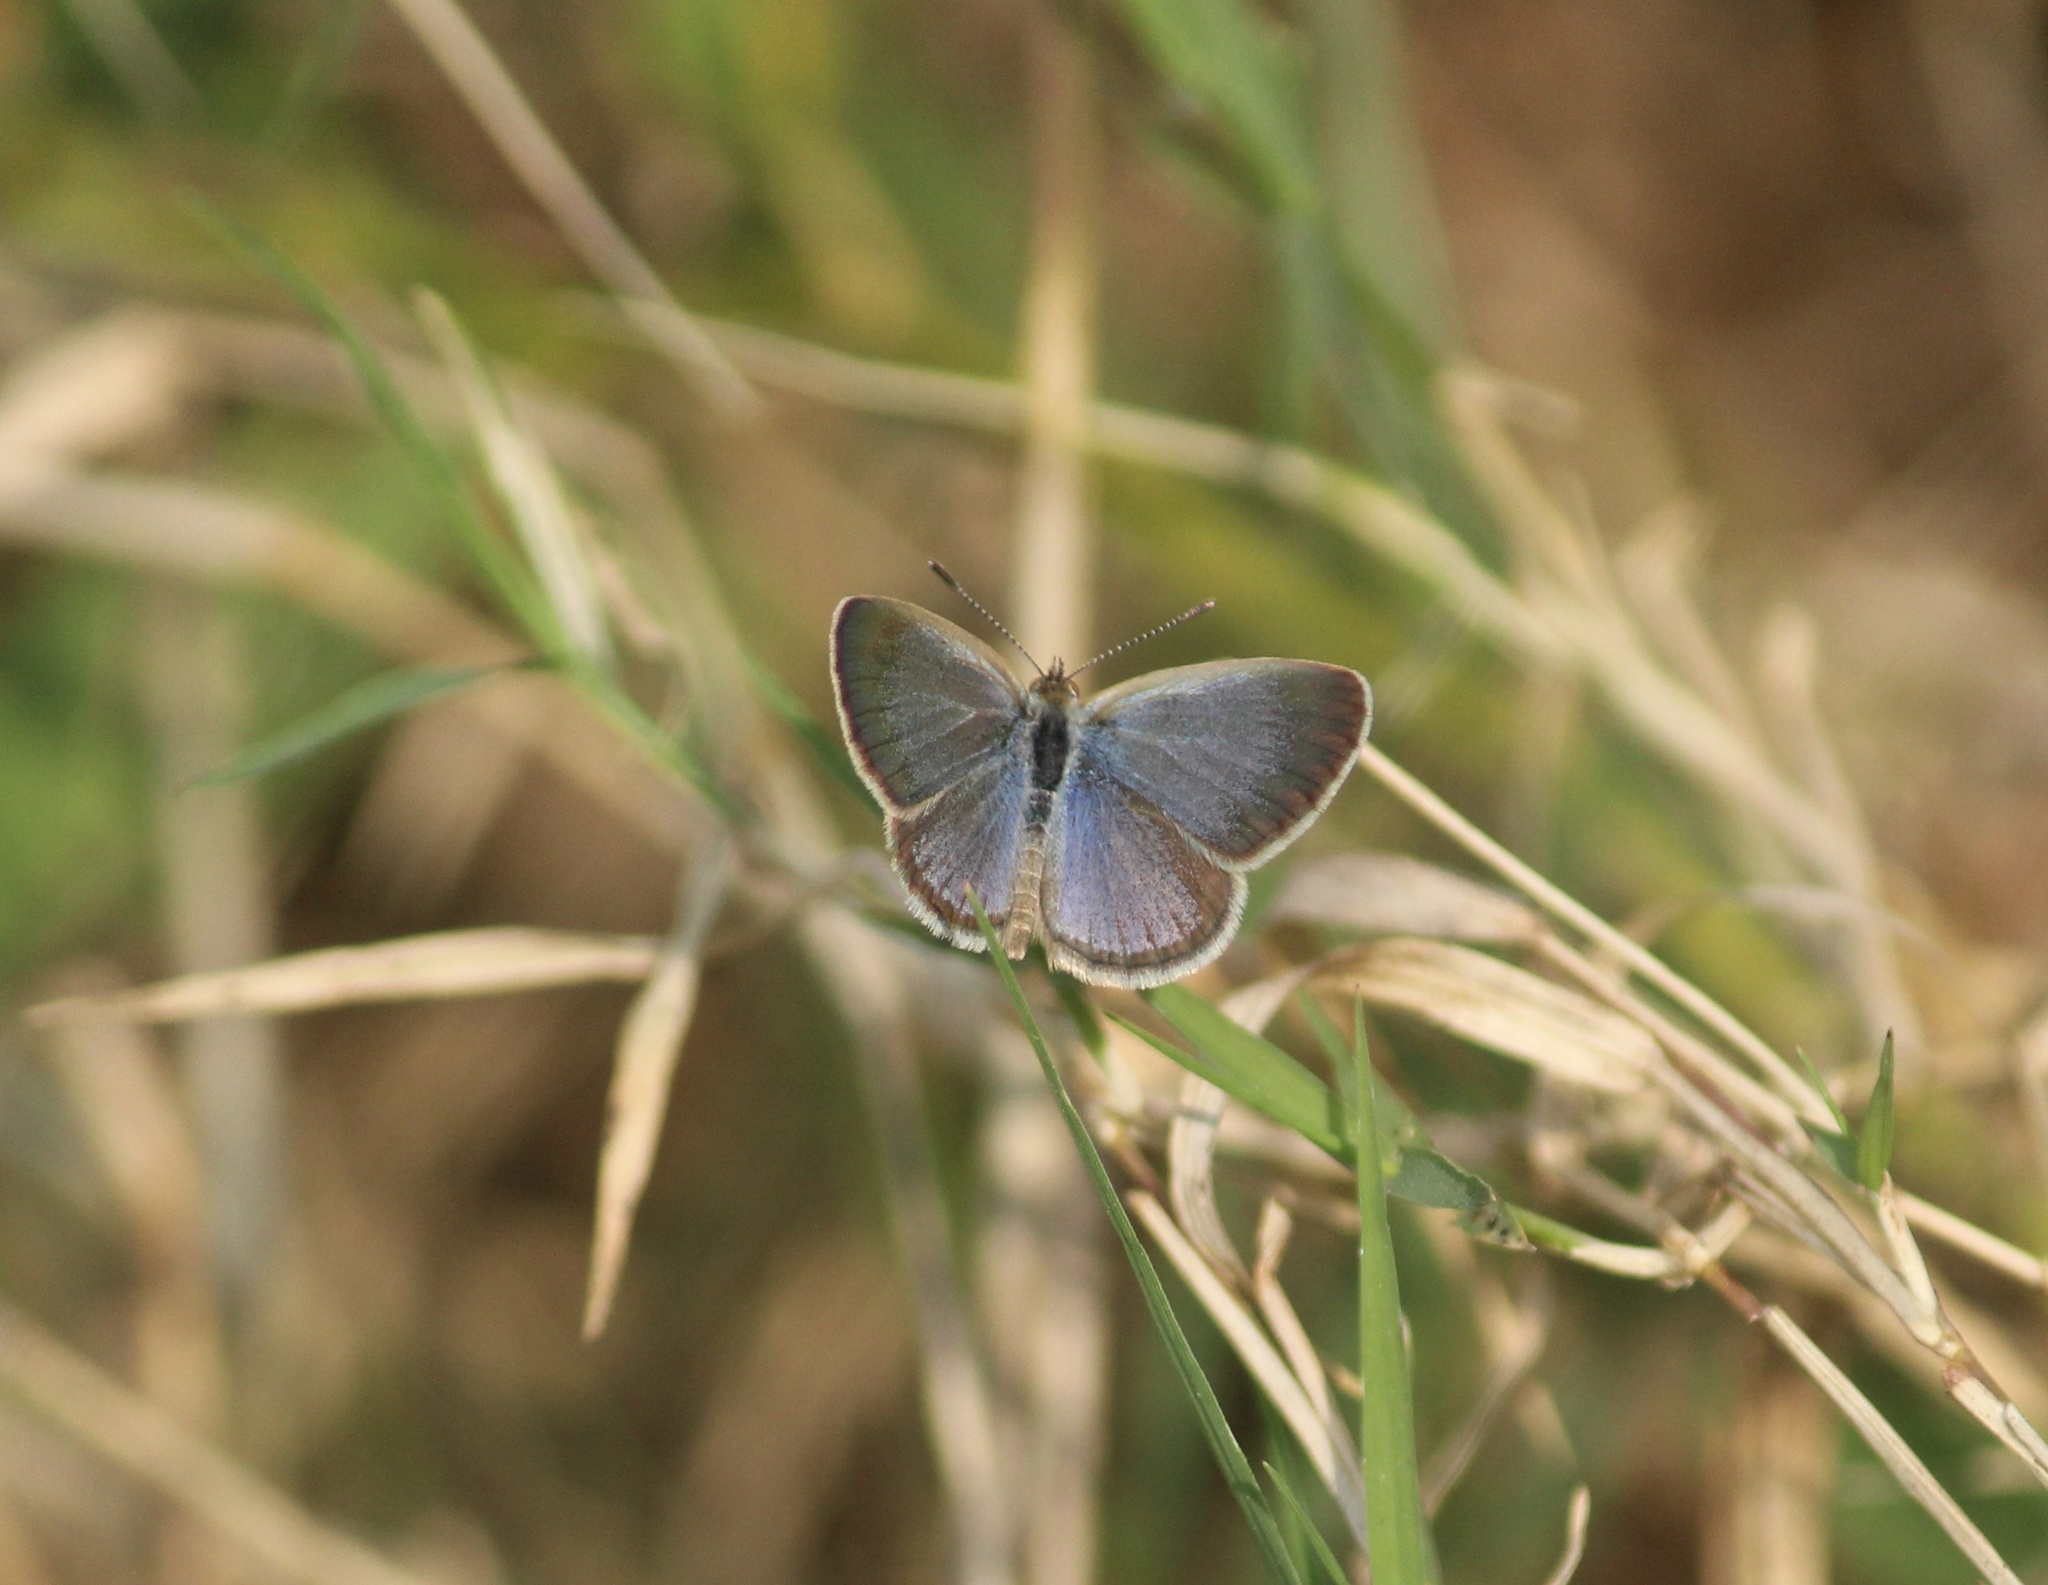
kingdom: Animalia
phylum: Arthropoda
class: Insecta
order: Lepidoptera
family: Lycaenidae
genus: Zizina
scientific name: Zizina otis
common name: Lesser grass blue
